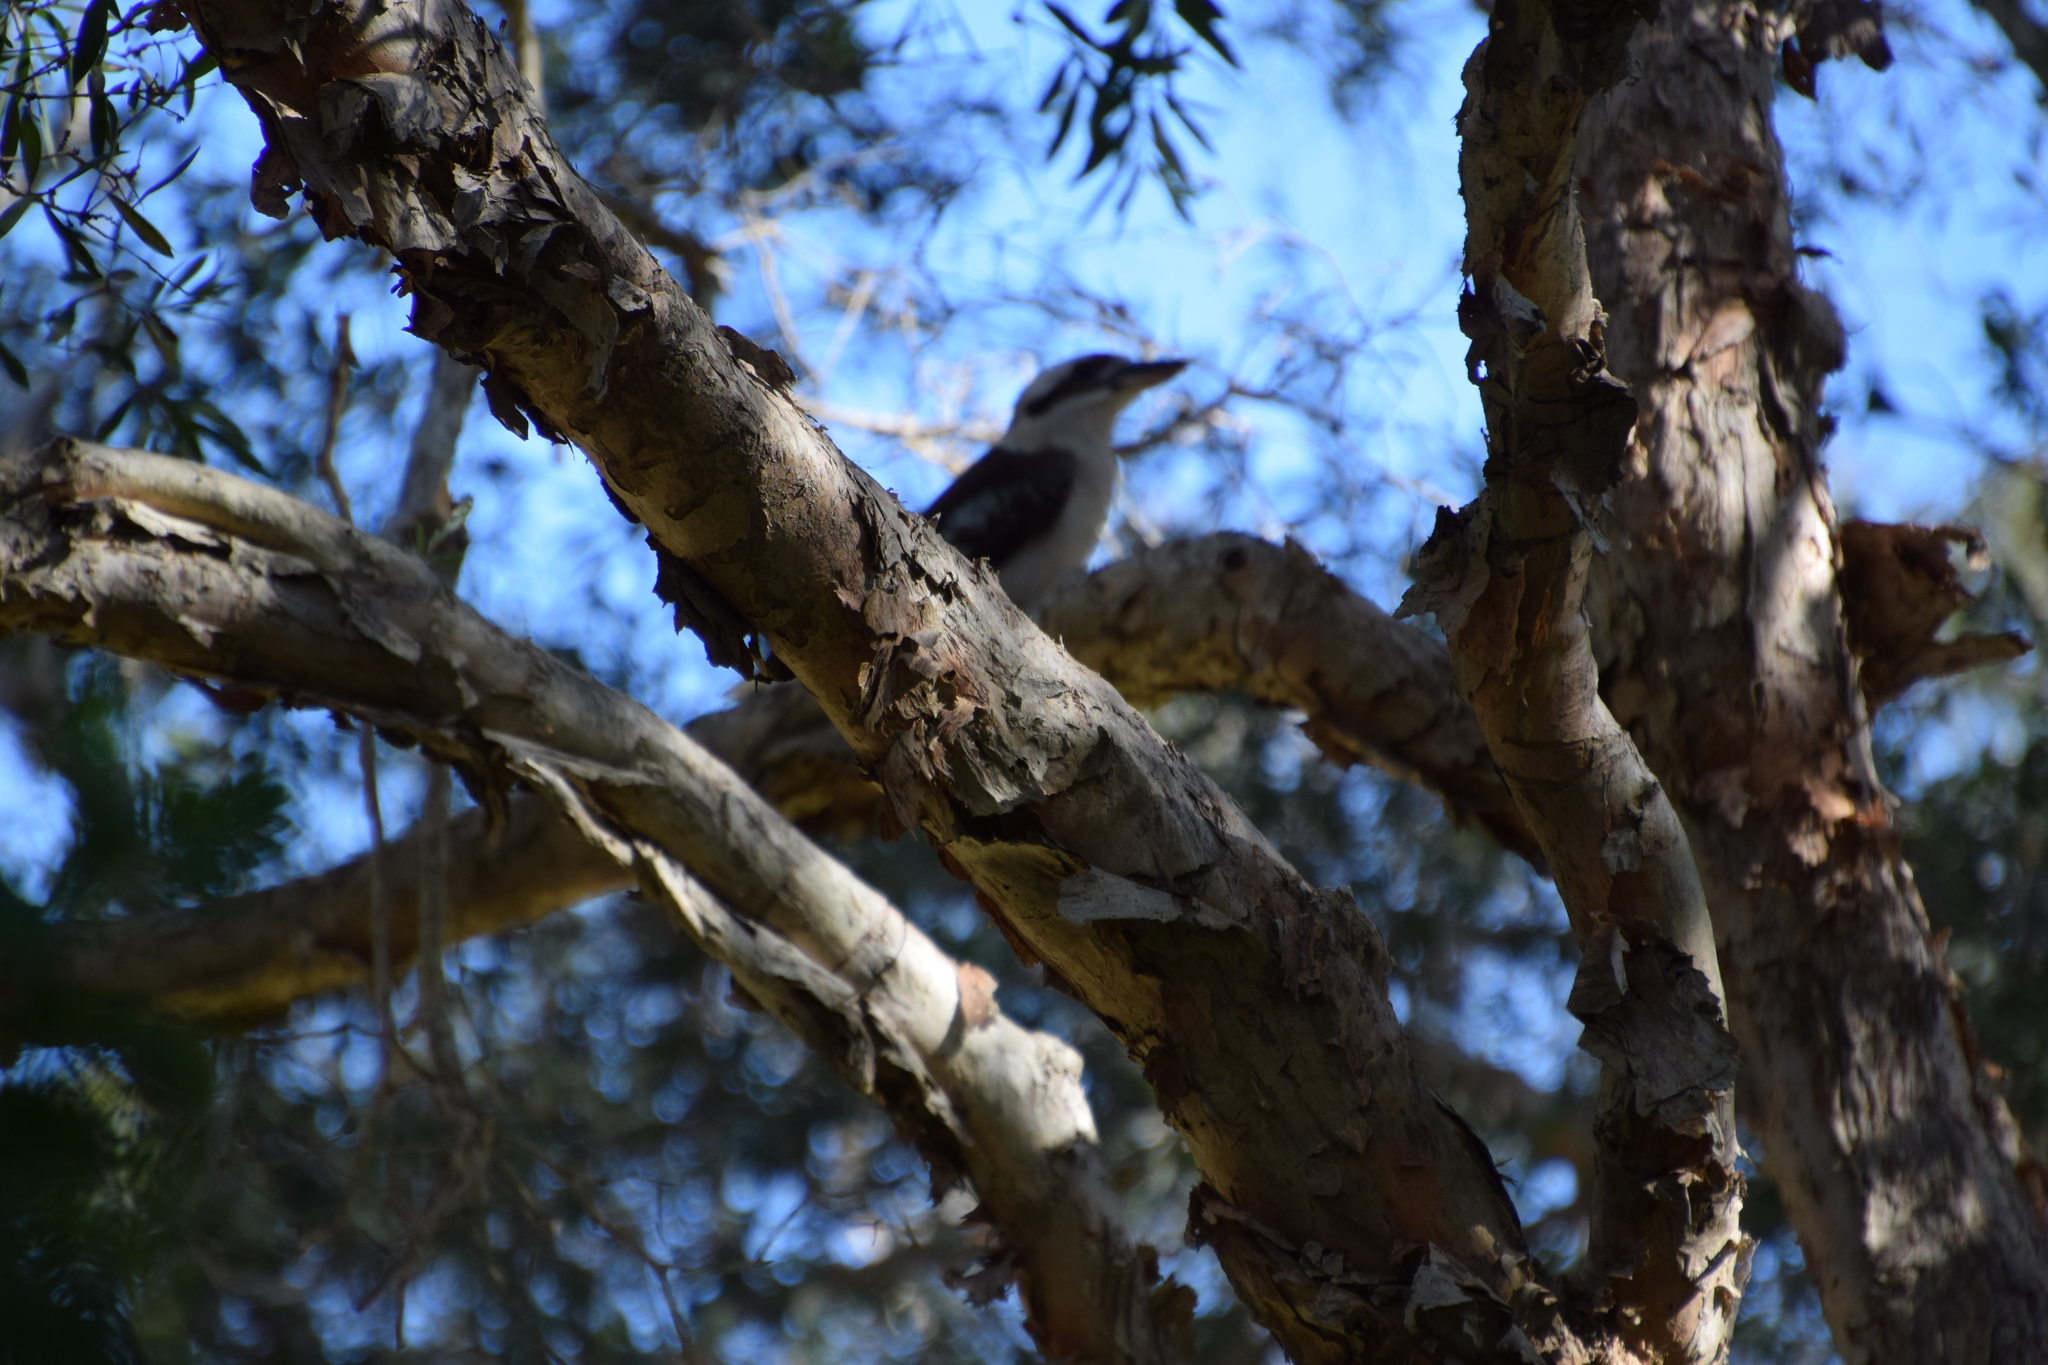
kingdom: Animalia
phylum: Chordata
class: Aves
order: Coraciiformes
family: Alcedinidae
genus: Dacelo
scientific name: Dacelo novaeguineae
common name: Laughing kookaburra
